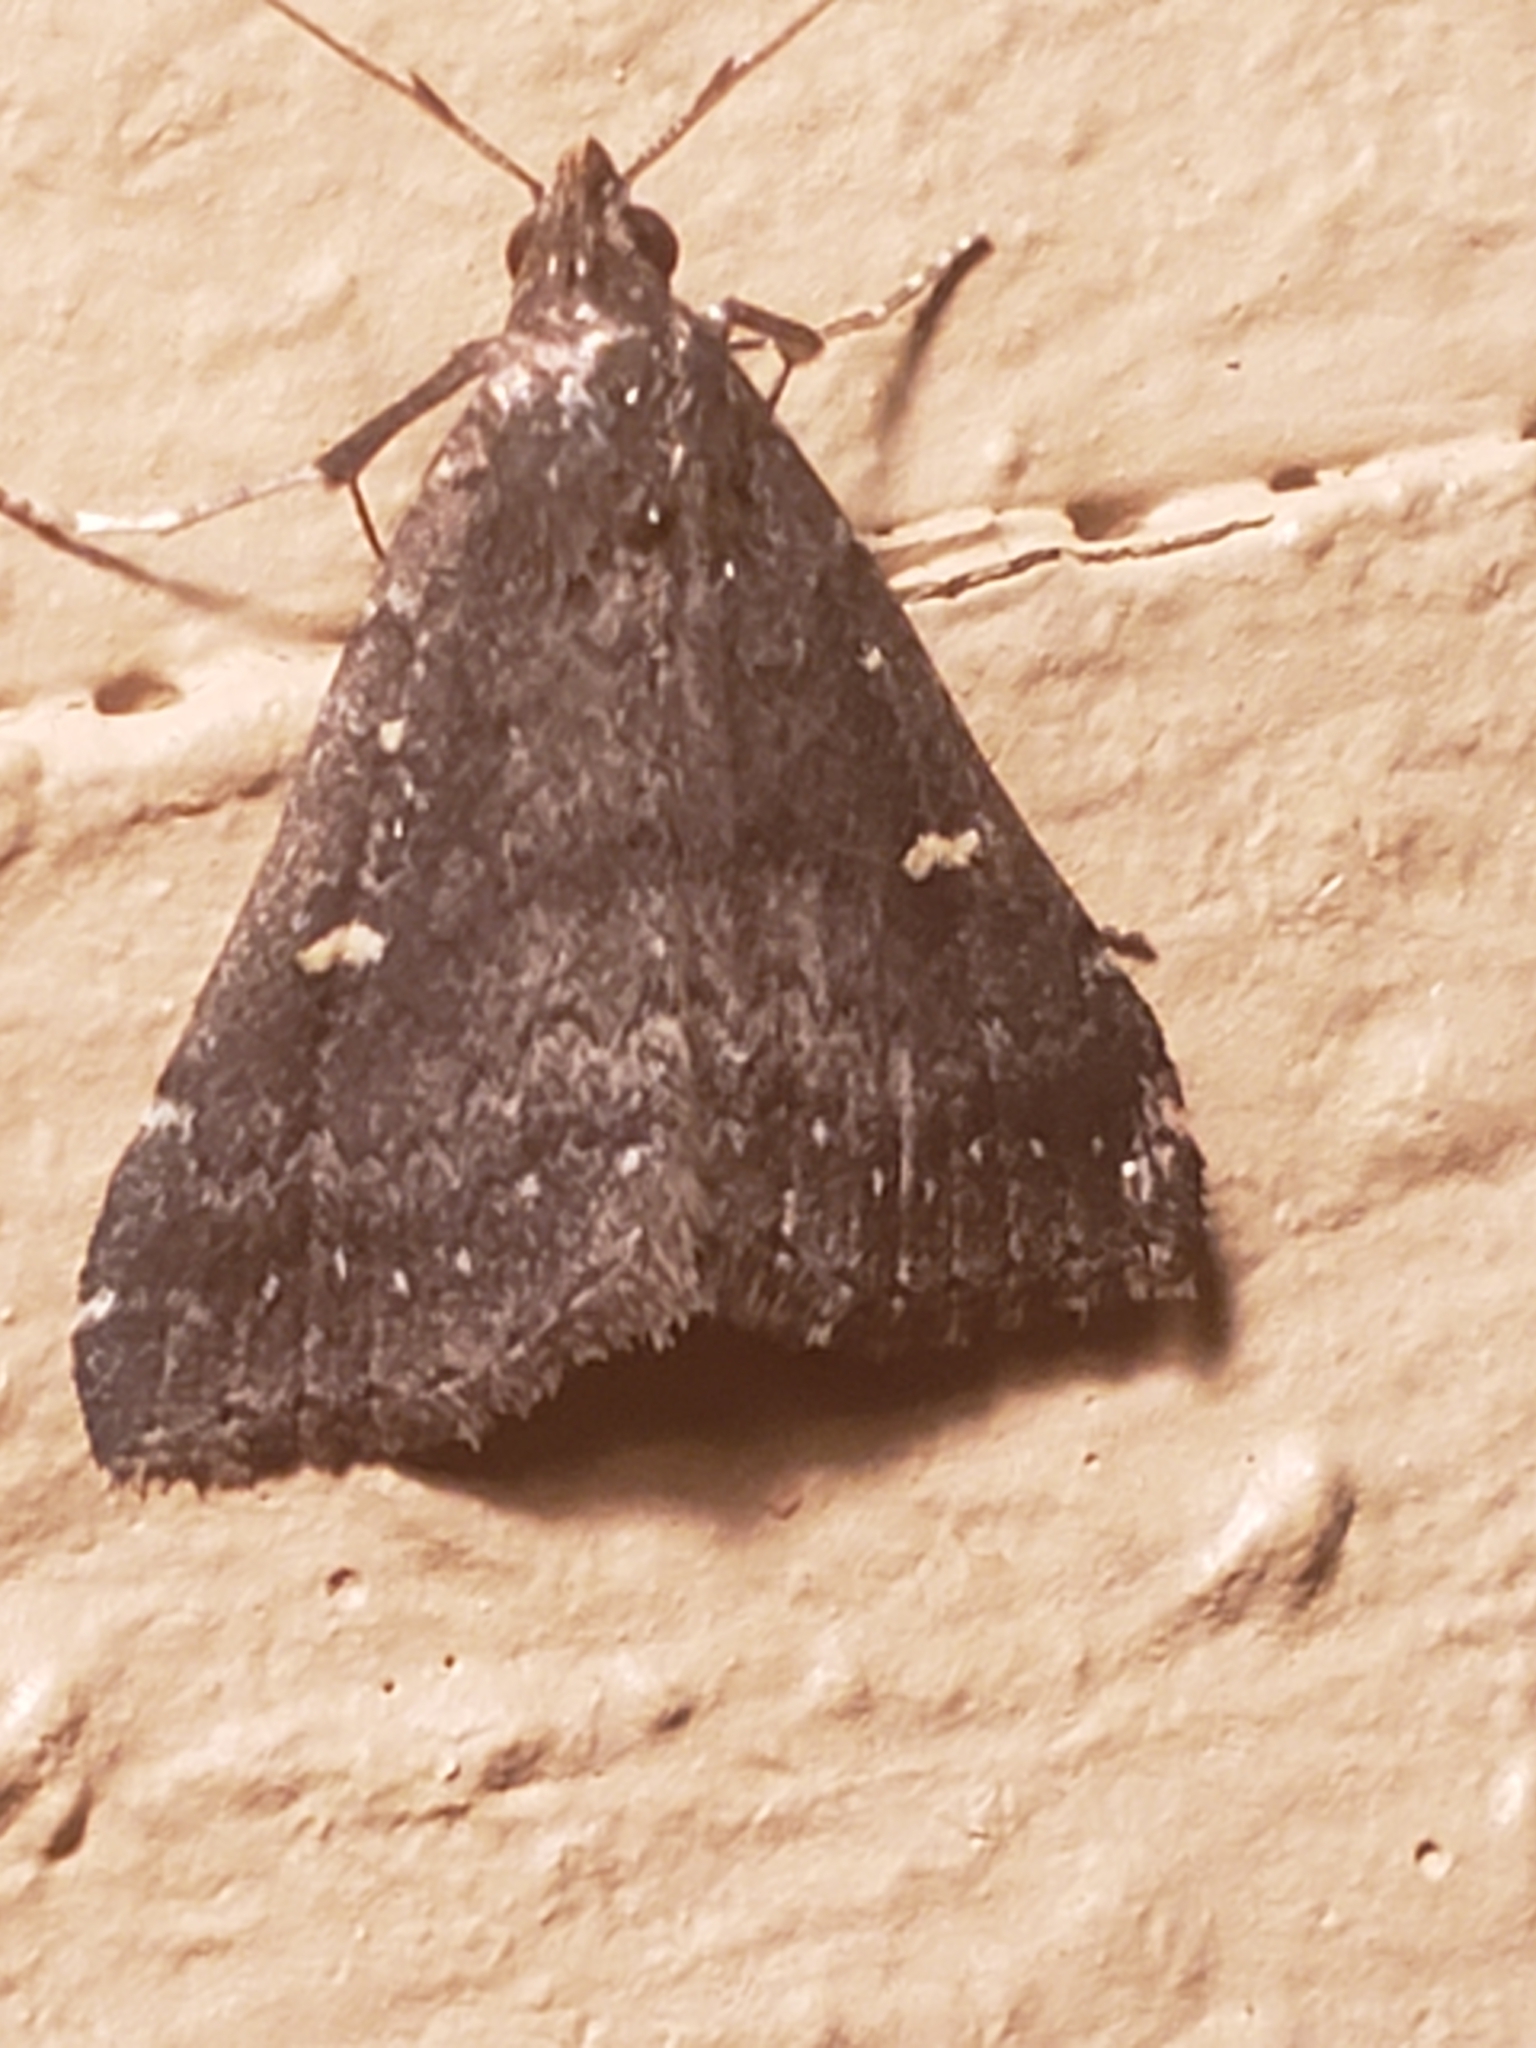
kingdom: Animalia
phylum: Arthropoda
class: Insecta
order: Lepidoptera
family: Erebidae
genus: Tetanolita
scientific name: Tetanolita mynesalis
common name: Smoky tetanolita moth
